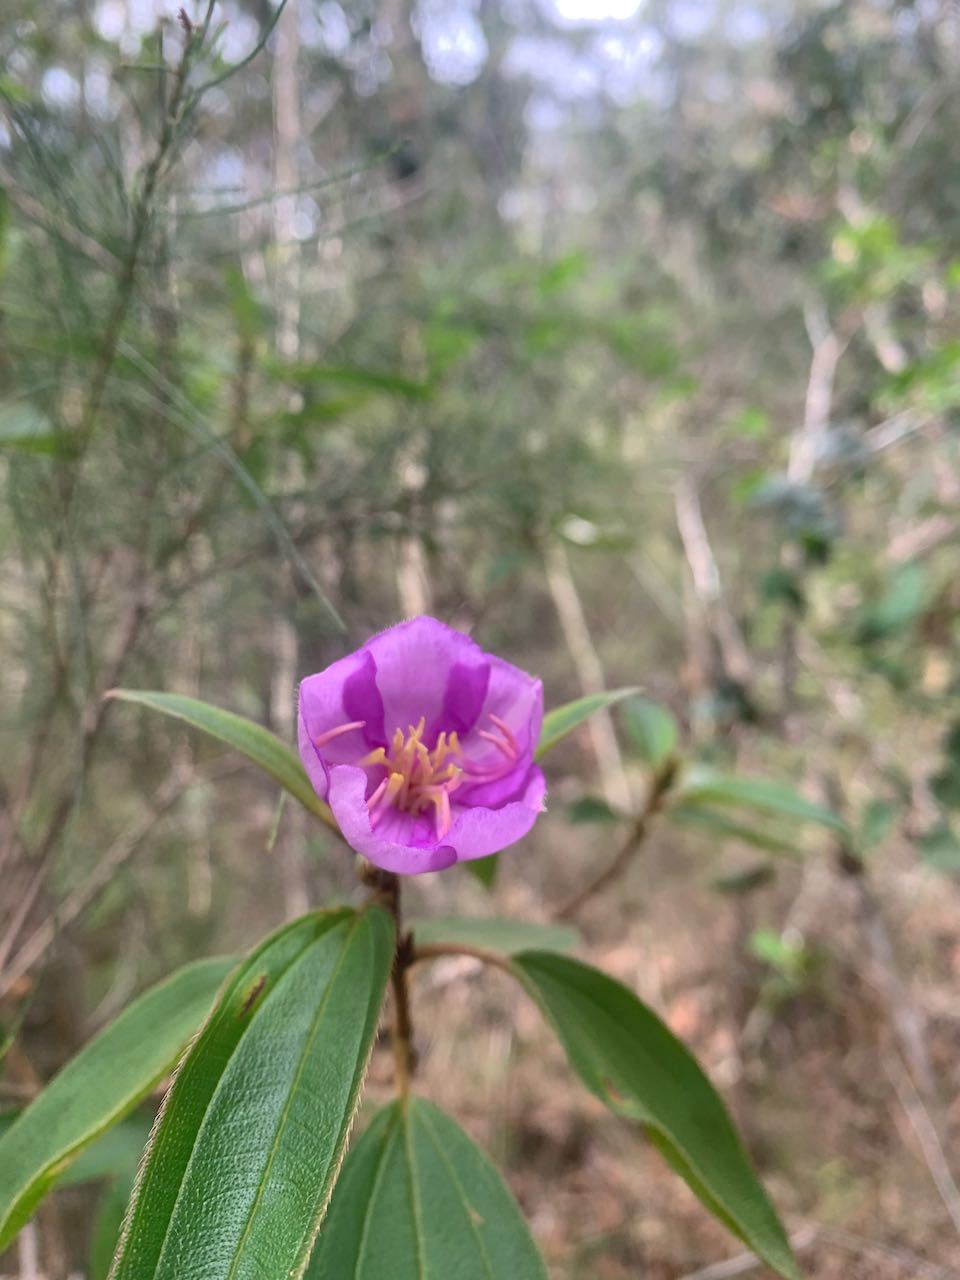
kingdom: Plantae
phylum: Tracheophyta
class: Magnoliopsida
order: Myrtales
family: Melastomataceae
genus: Melastoma
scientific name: Melastoma malabathricum
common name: Indian-rhododendron
